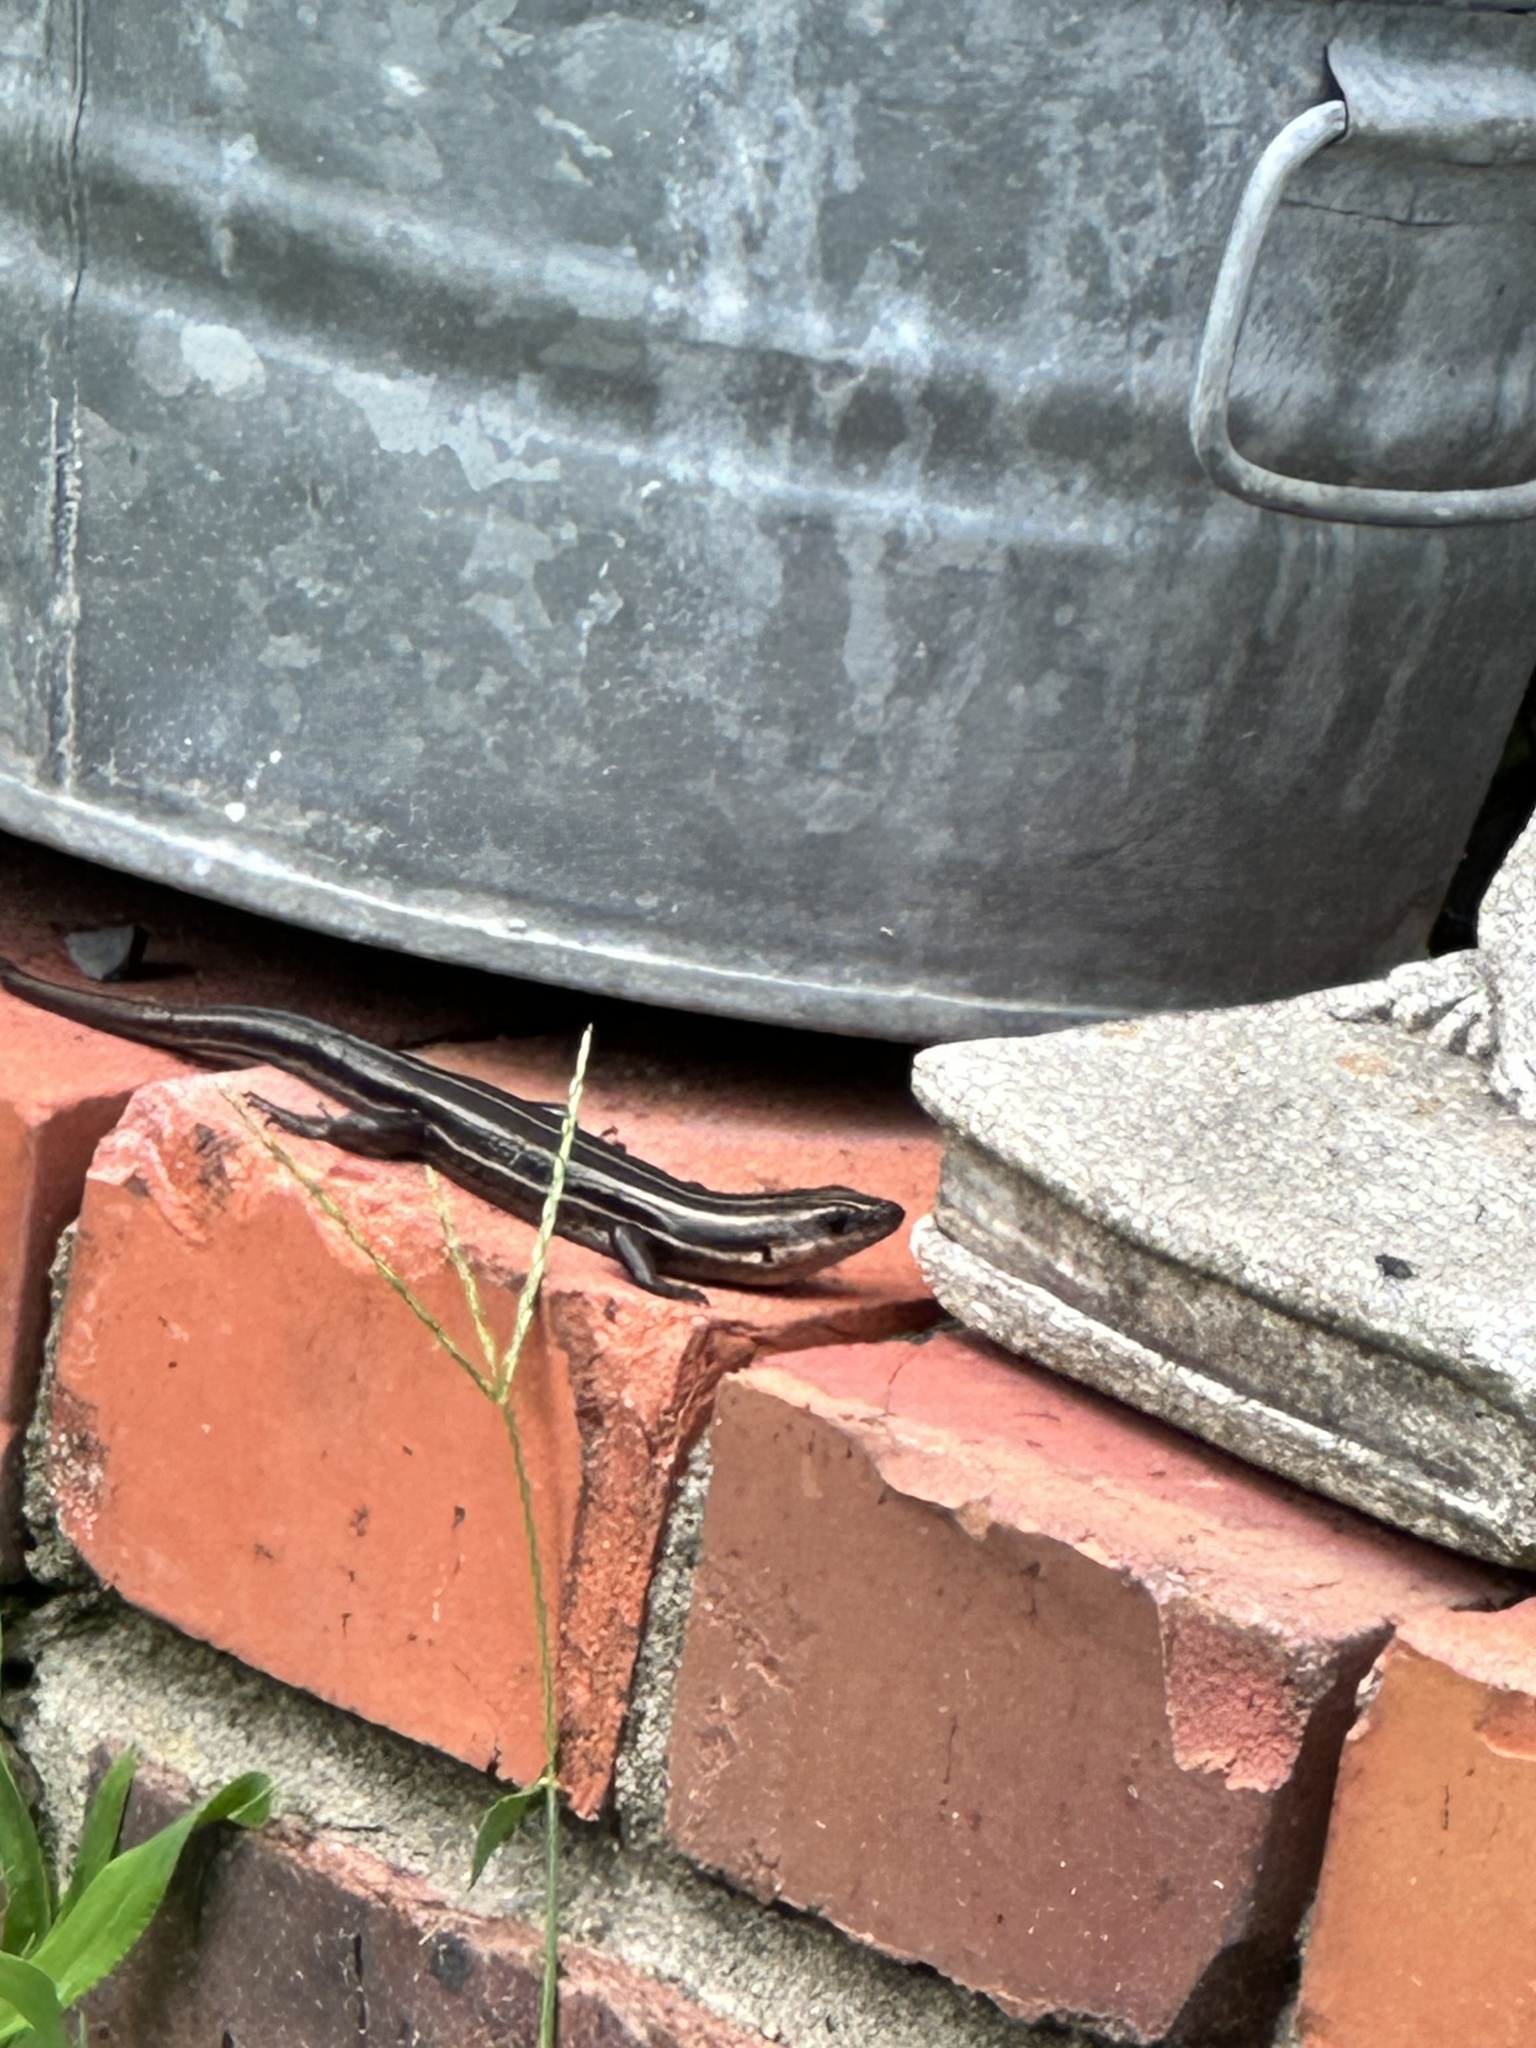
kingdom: Animalia
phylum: Chordata
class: Squamata
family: Scincidae
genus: Plestiodon
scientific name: Plestiodon fasciatus
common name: Five-lined skink
